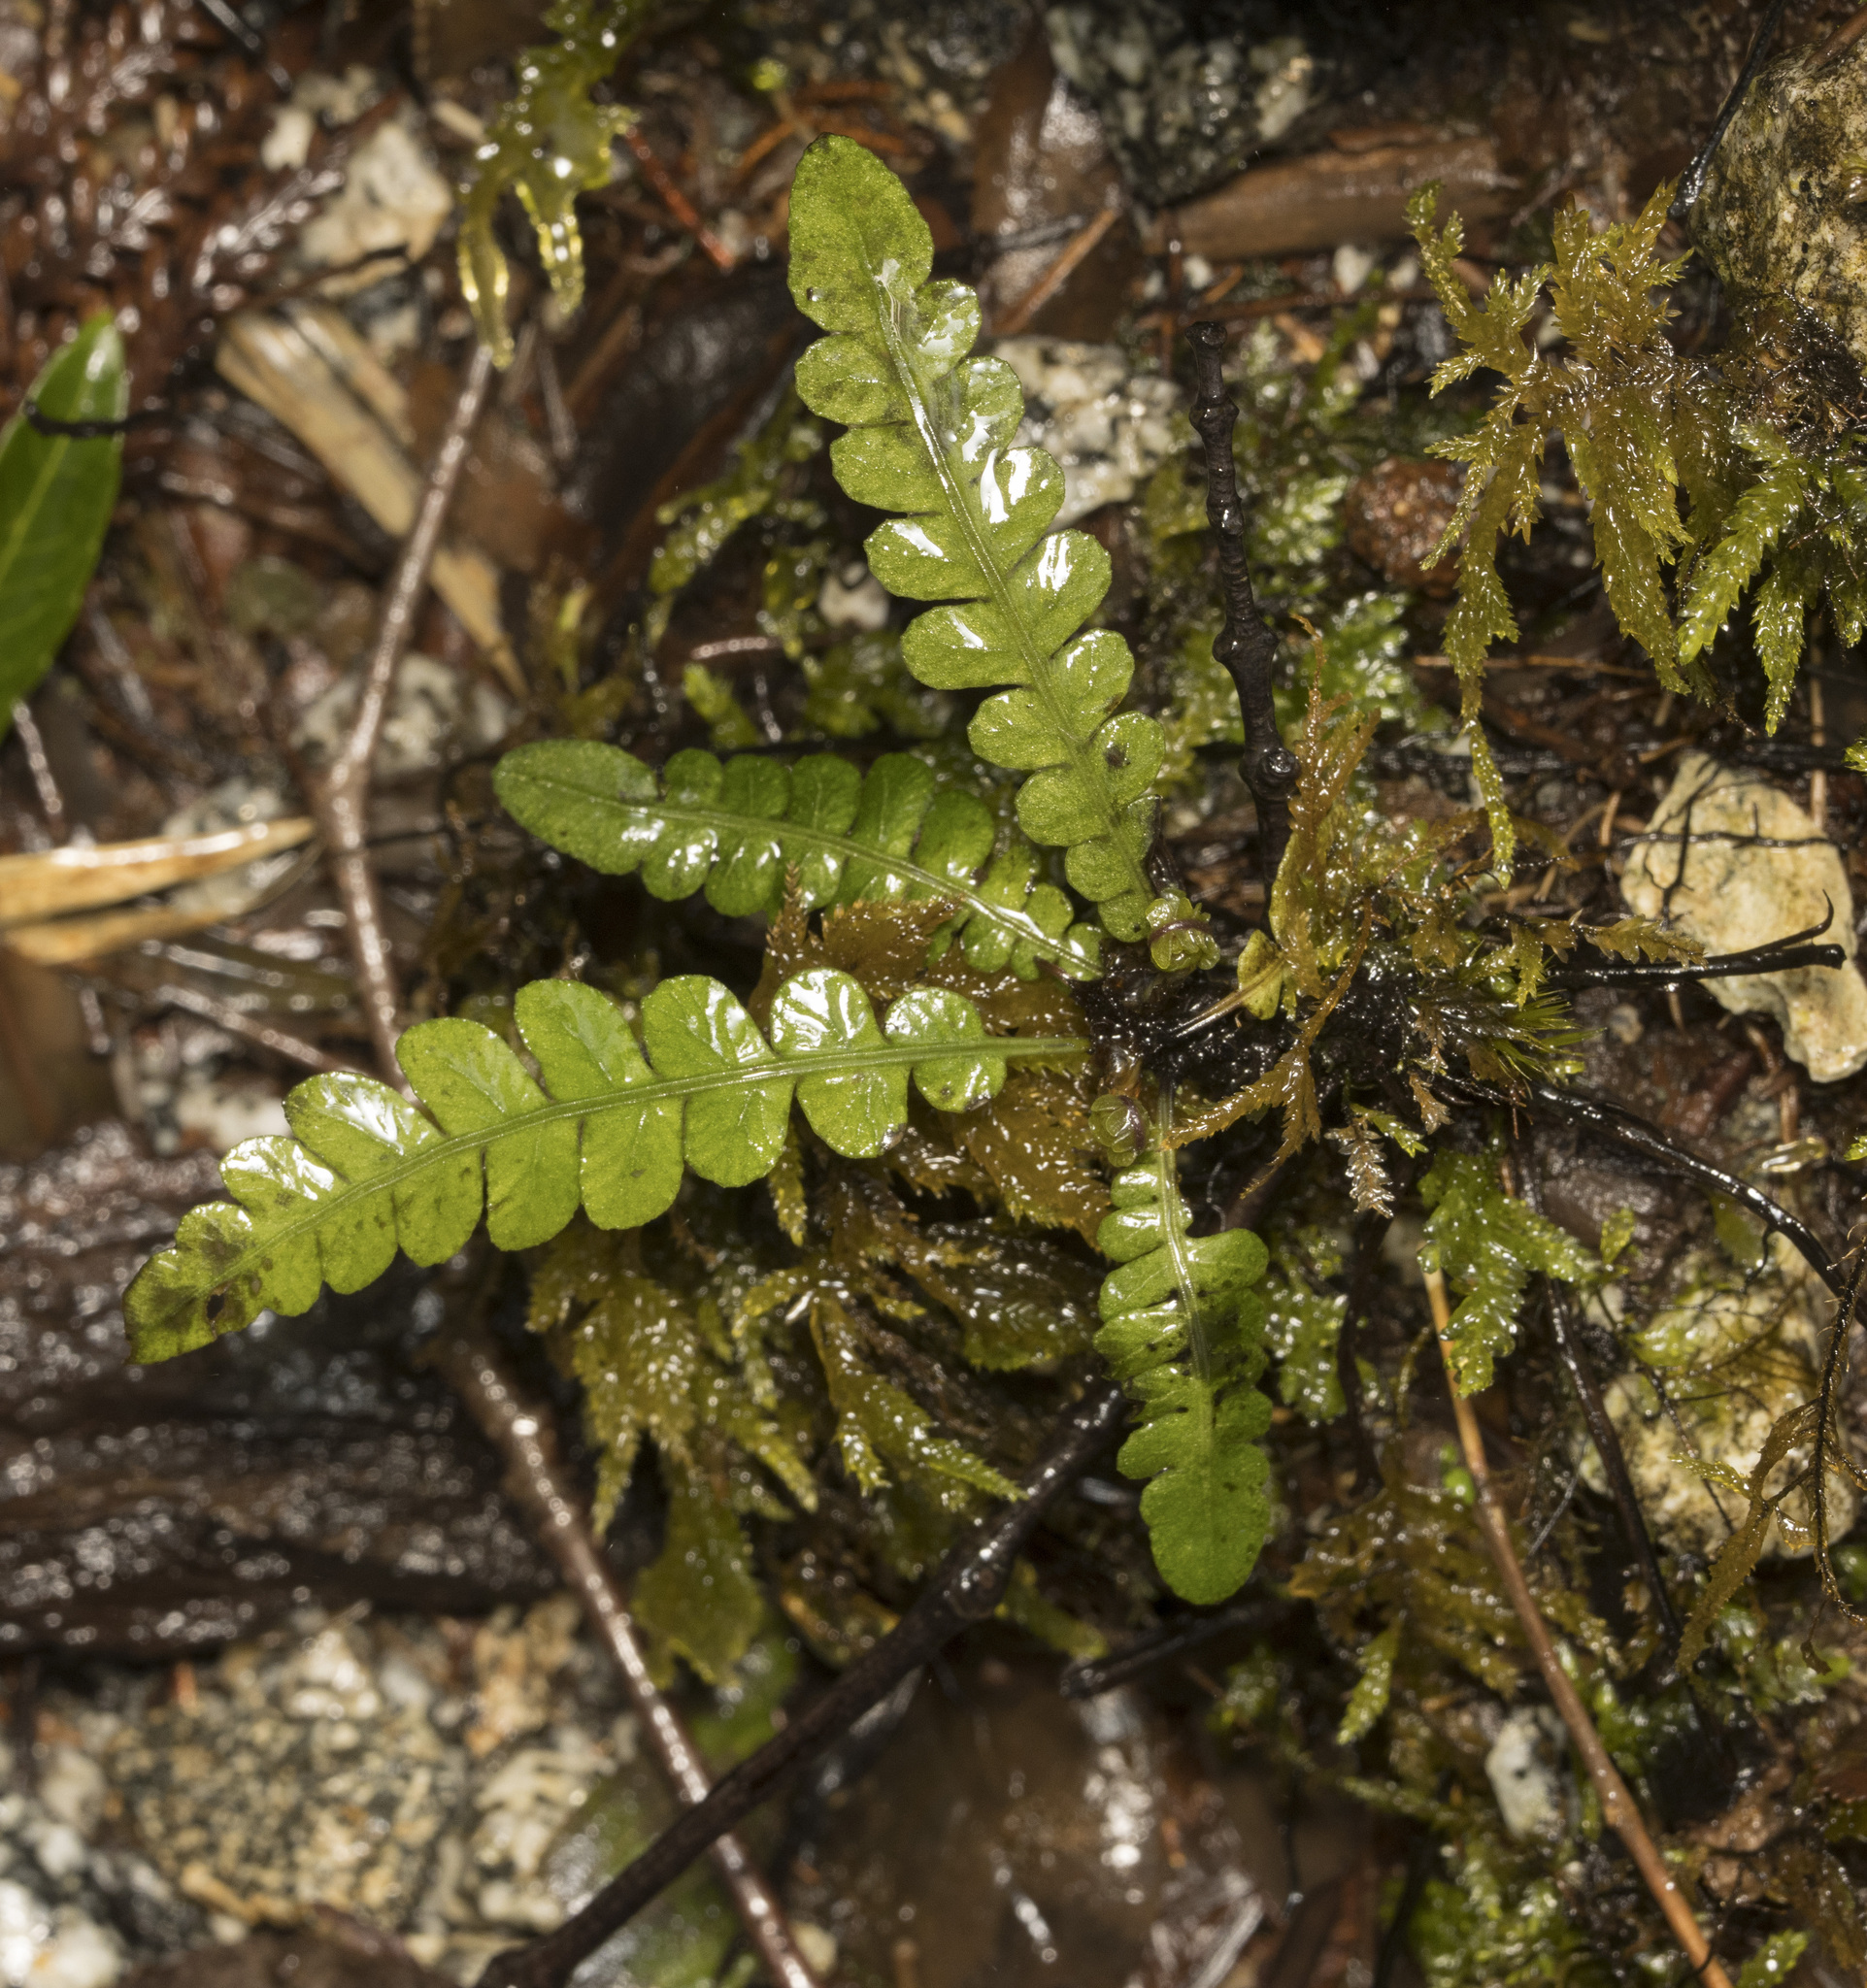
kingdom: Plantae
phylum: Tracheophyta
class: Polypodiopsida
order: Polypodiales
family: Blechnaceae
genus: Blechnum
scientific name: Blechnum corralense
